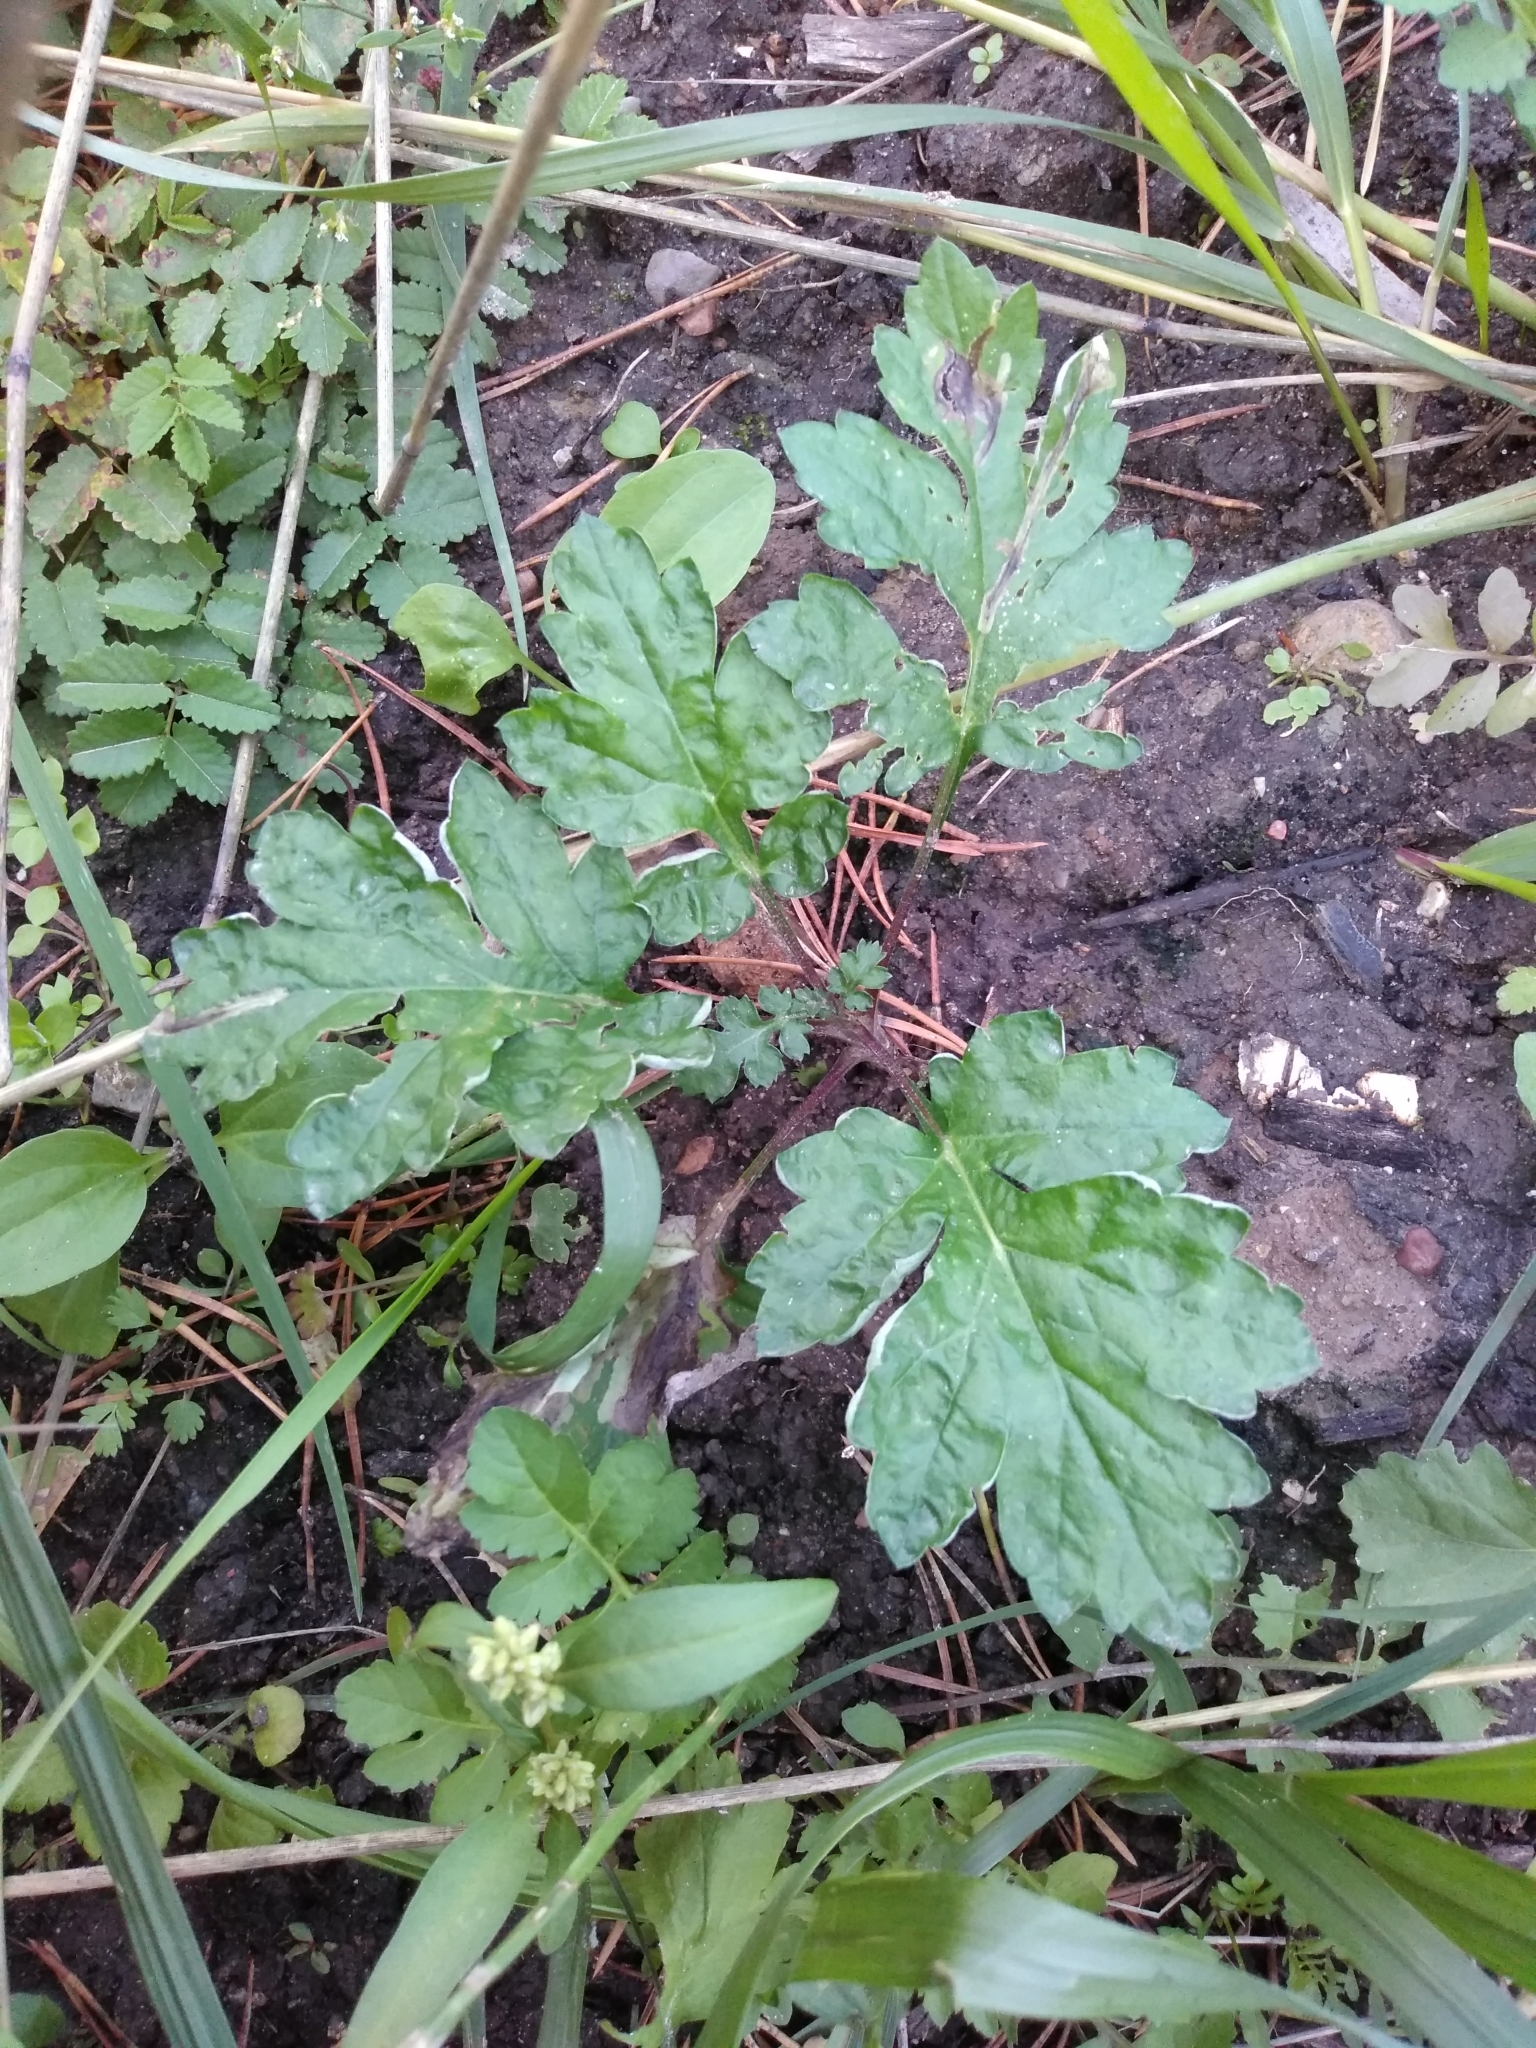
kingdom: Plantae
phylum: Tracheophyta
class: Magnoliopsida
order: Asterales
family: Asteraceae
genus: Artemisia
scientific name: Artemisia vulgaris
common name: Mugwort
